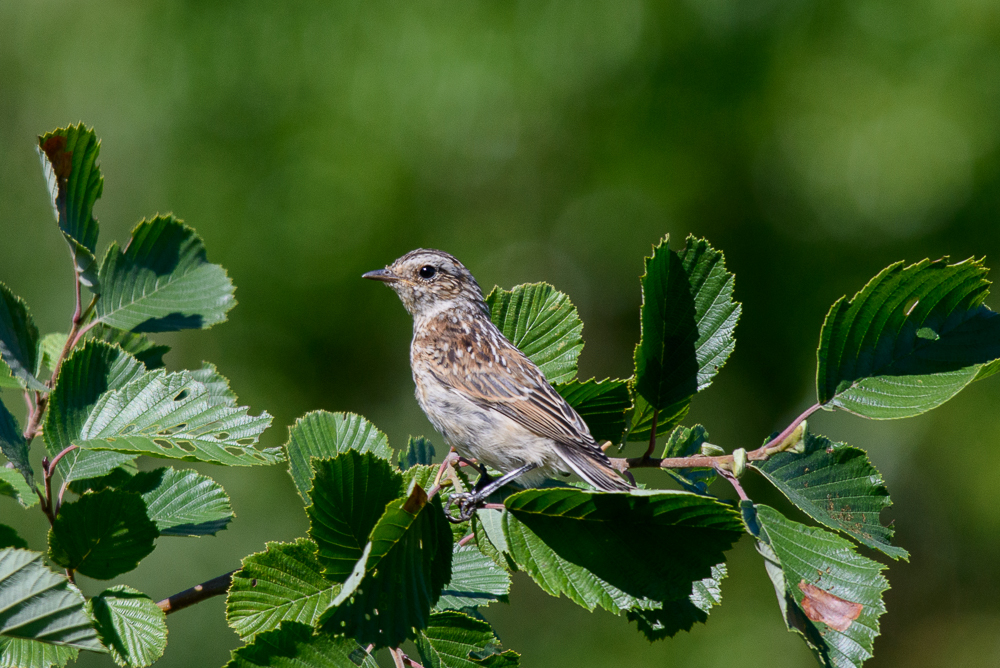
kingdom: Animalia
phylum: Chordata
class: Aves
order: Passeriformes
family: Muscicapidae
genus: Saxicola
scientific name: Saxicola rubetra
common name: Whinchat
